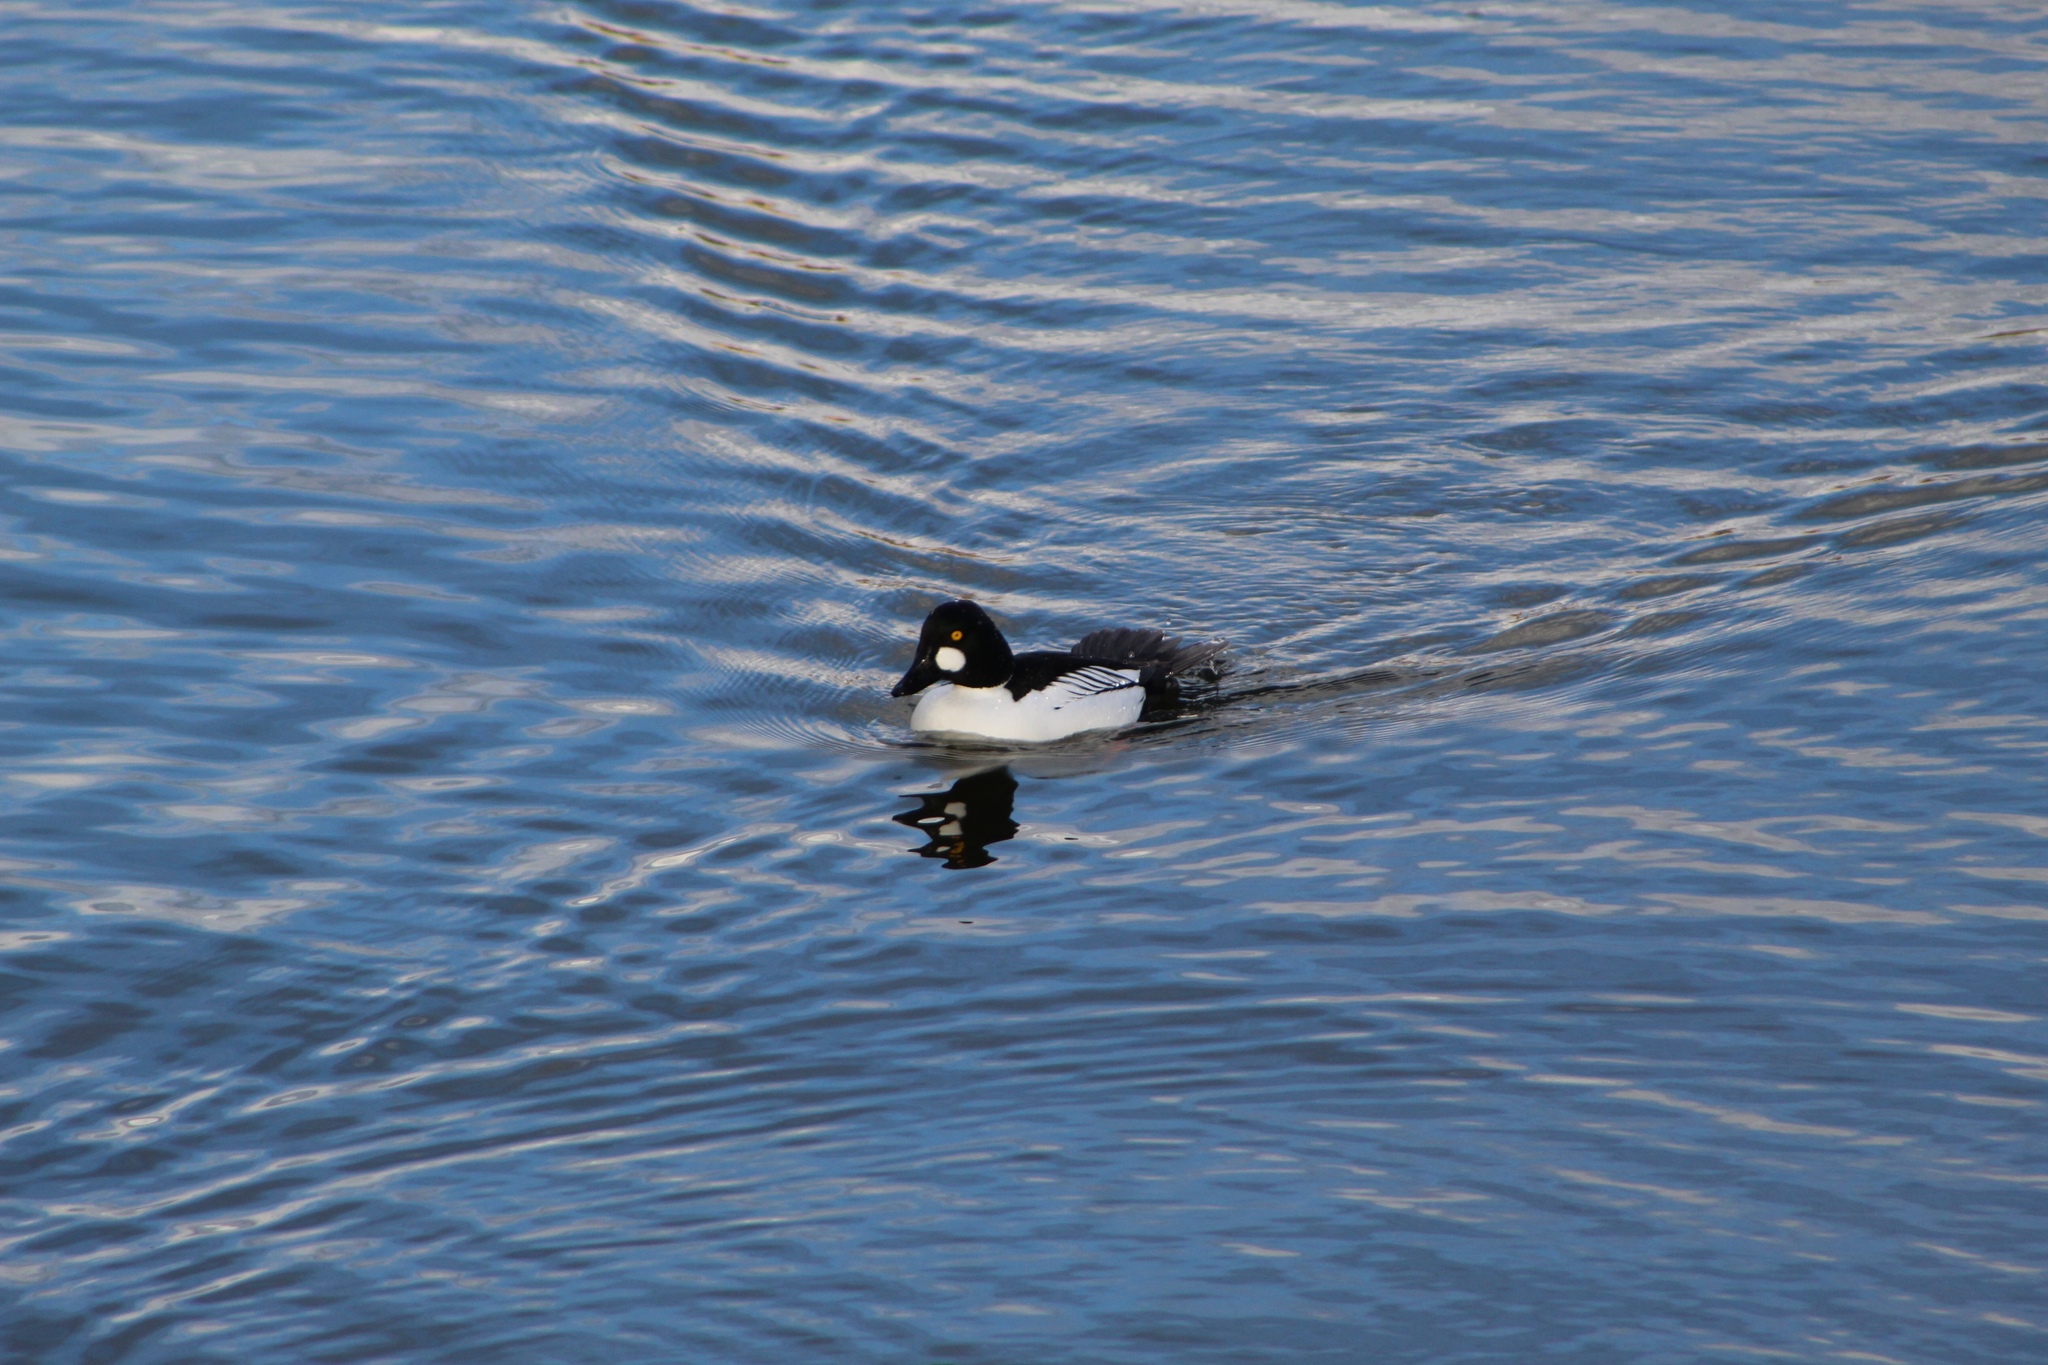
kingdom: Animalia
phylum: Chordata
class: Aves
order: Anseriformes
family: Anatidae
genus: Bucephala
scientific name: Bucephala clangula
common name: Common goldeneye
